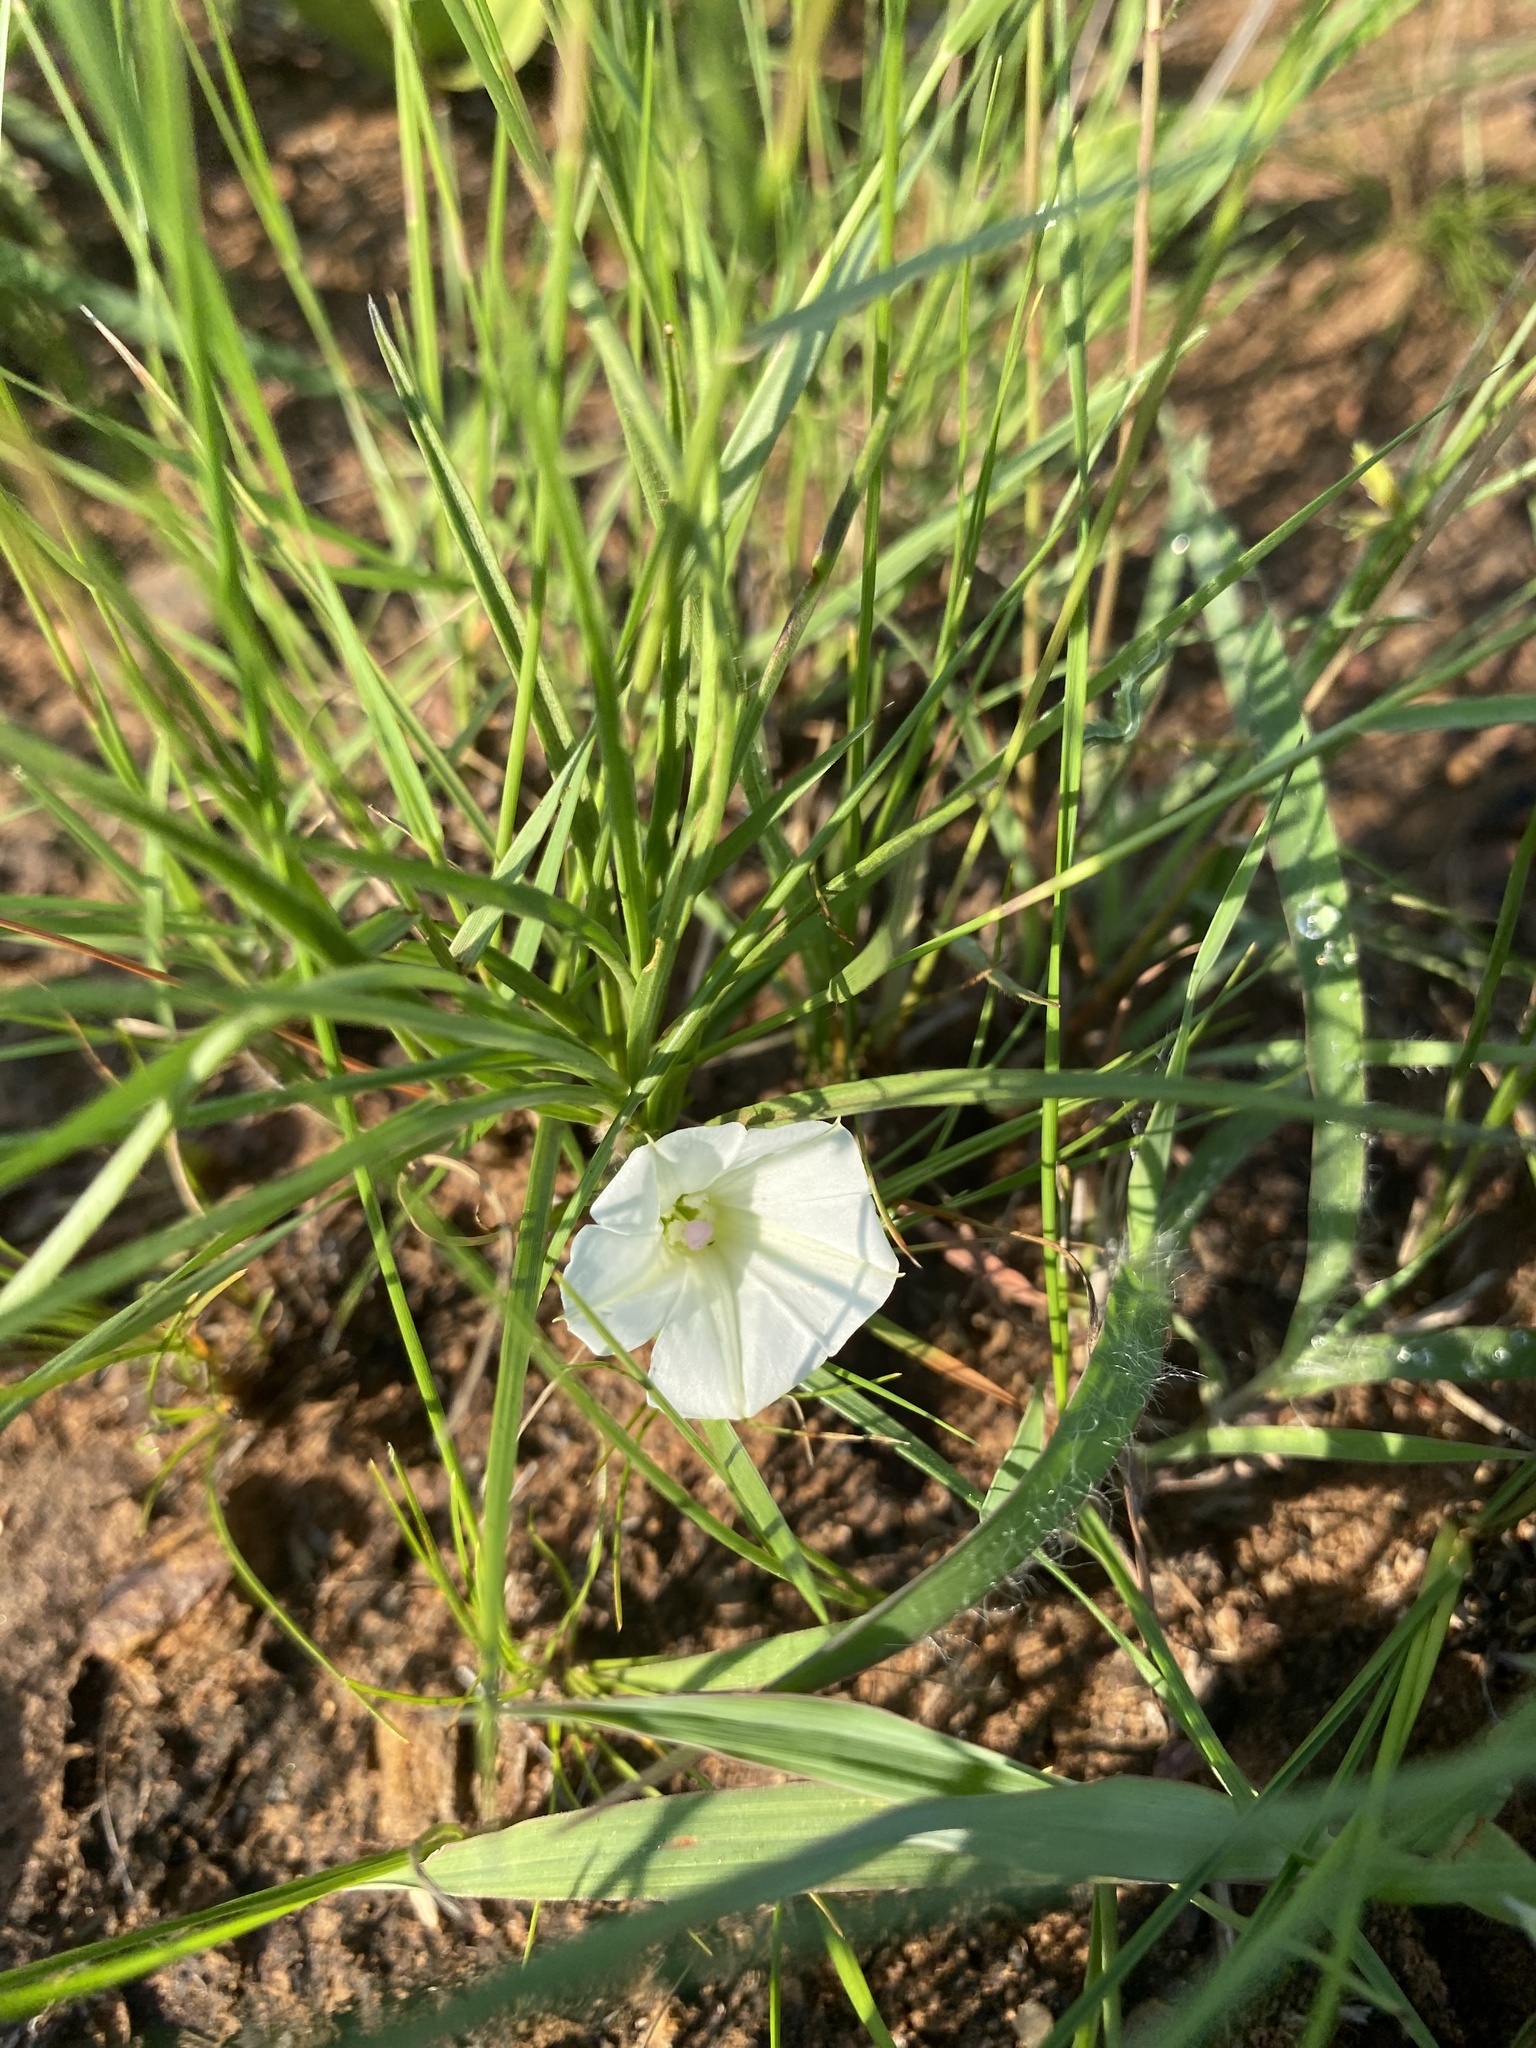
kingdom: Plantae
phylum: Tracheophyta
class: Magnoliopsida
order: Solanales
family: Convolvulaceae
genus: Ipomoea
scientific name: Ipomoea simplex
